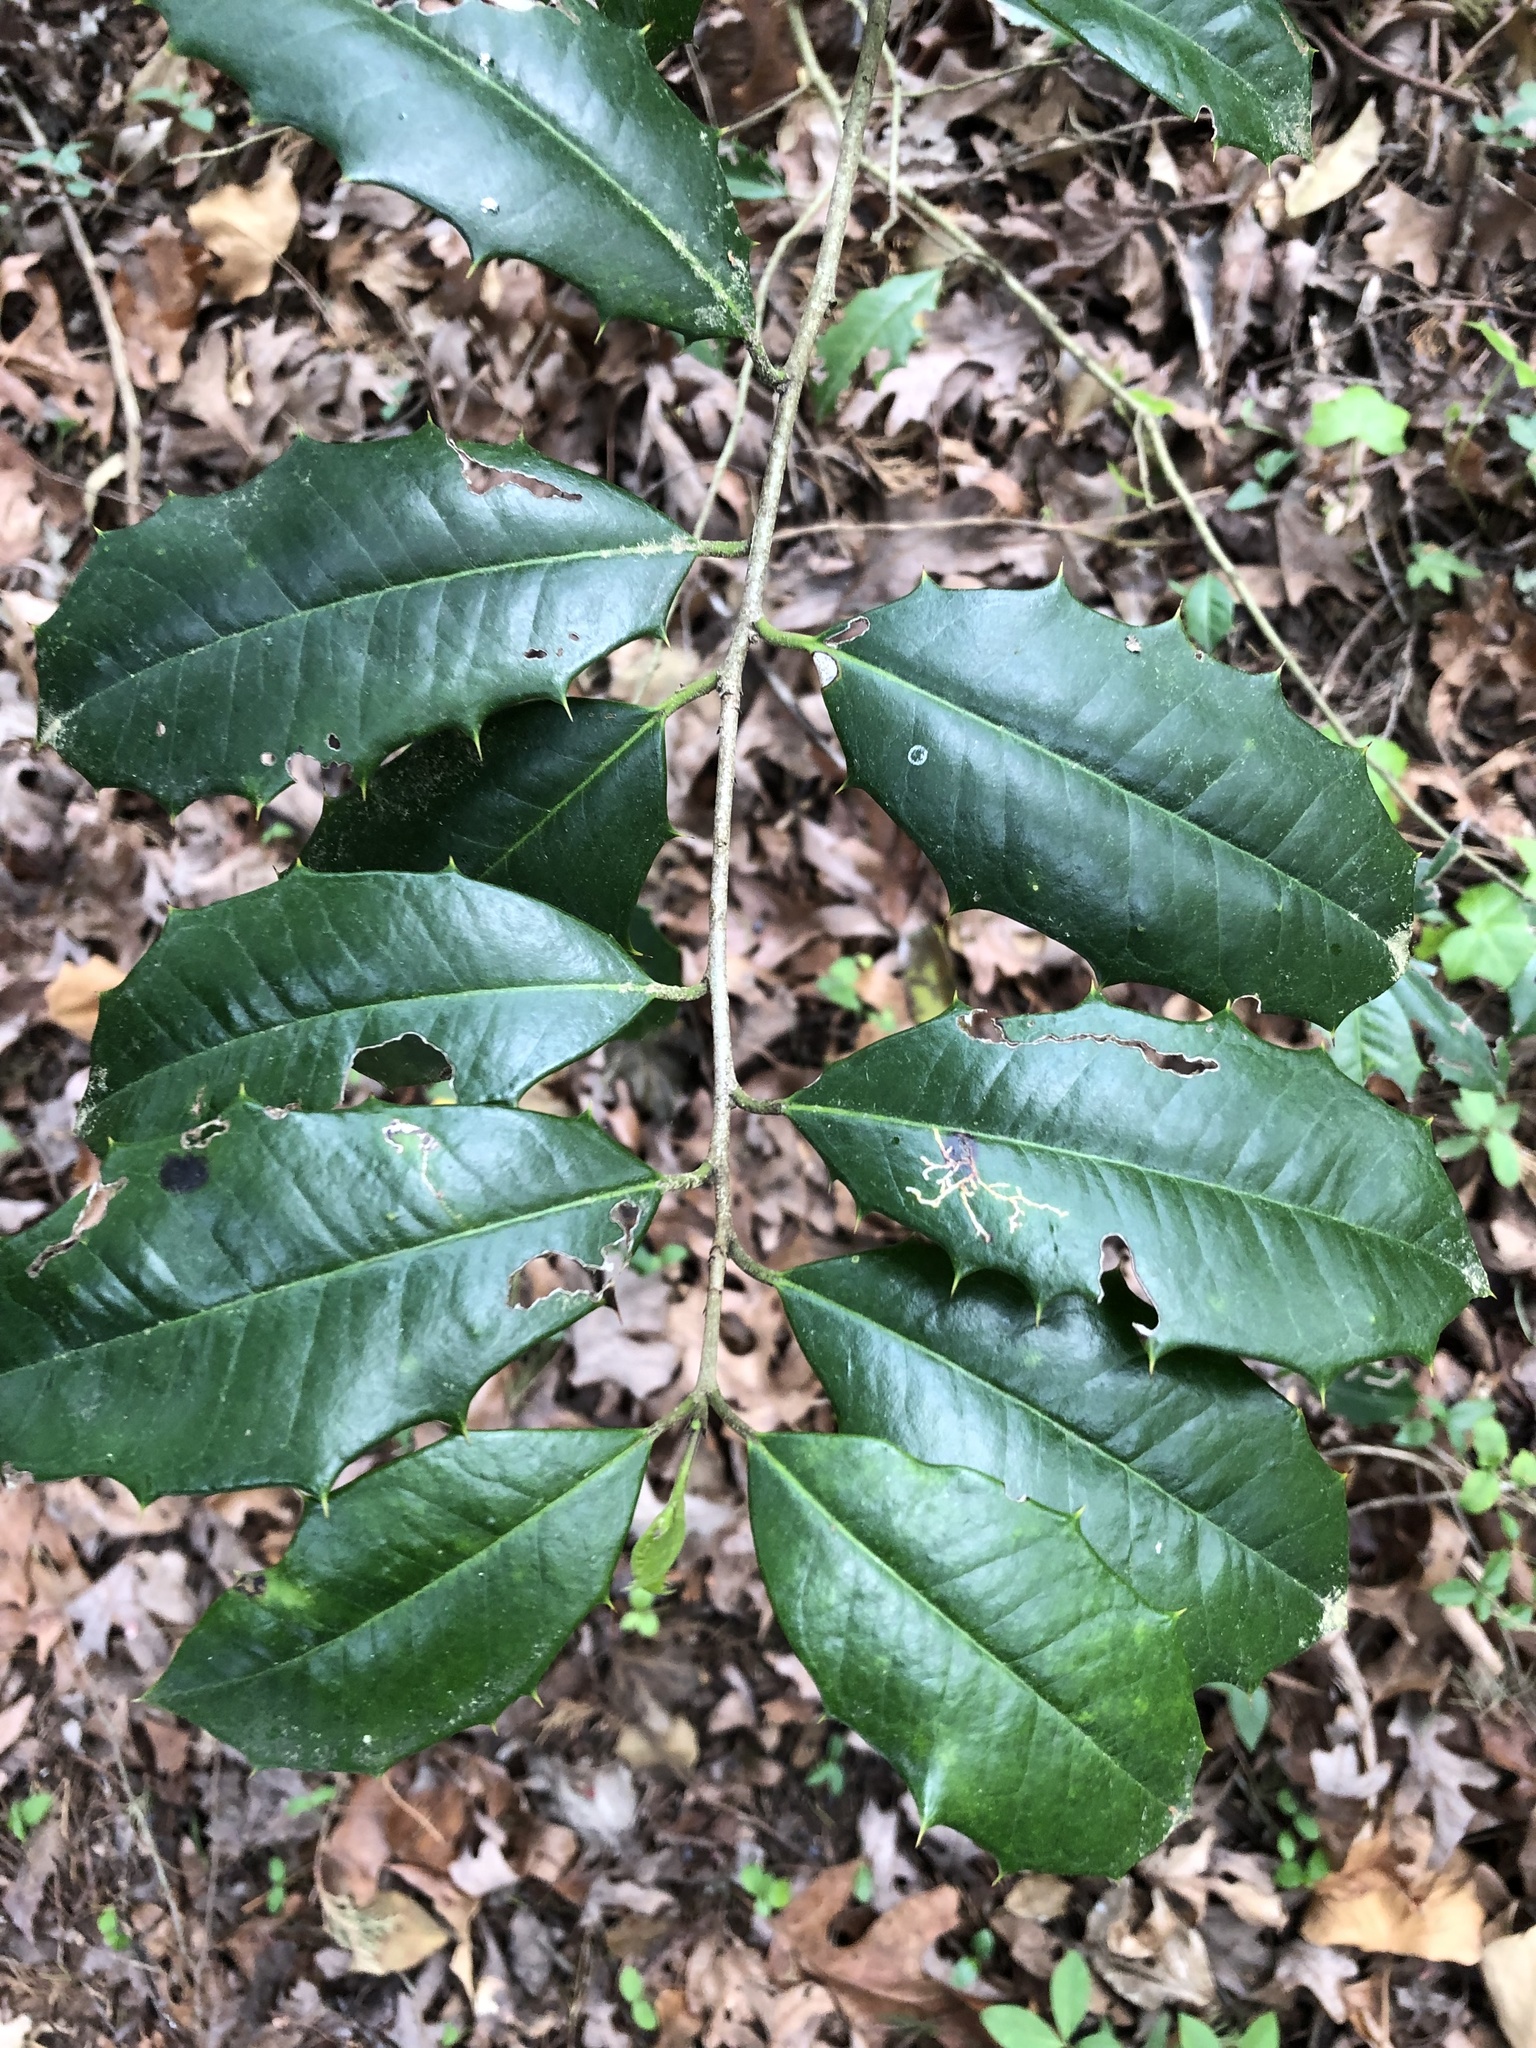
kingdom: Plantae
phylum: Tracheophyta
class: Magnoliopsida
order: Aquifoliales
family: Aquifoliaceae
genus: Ilex
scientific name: Ilex opaca
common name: American holly
